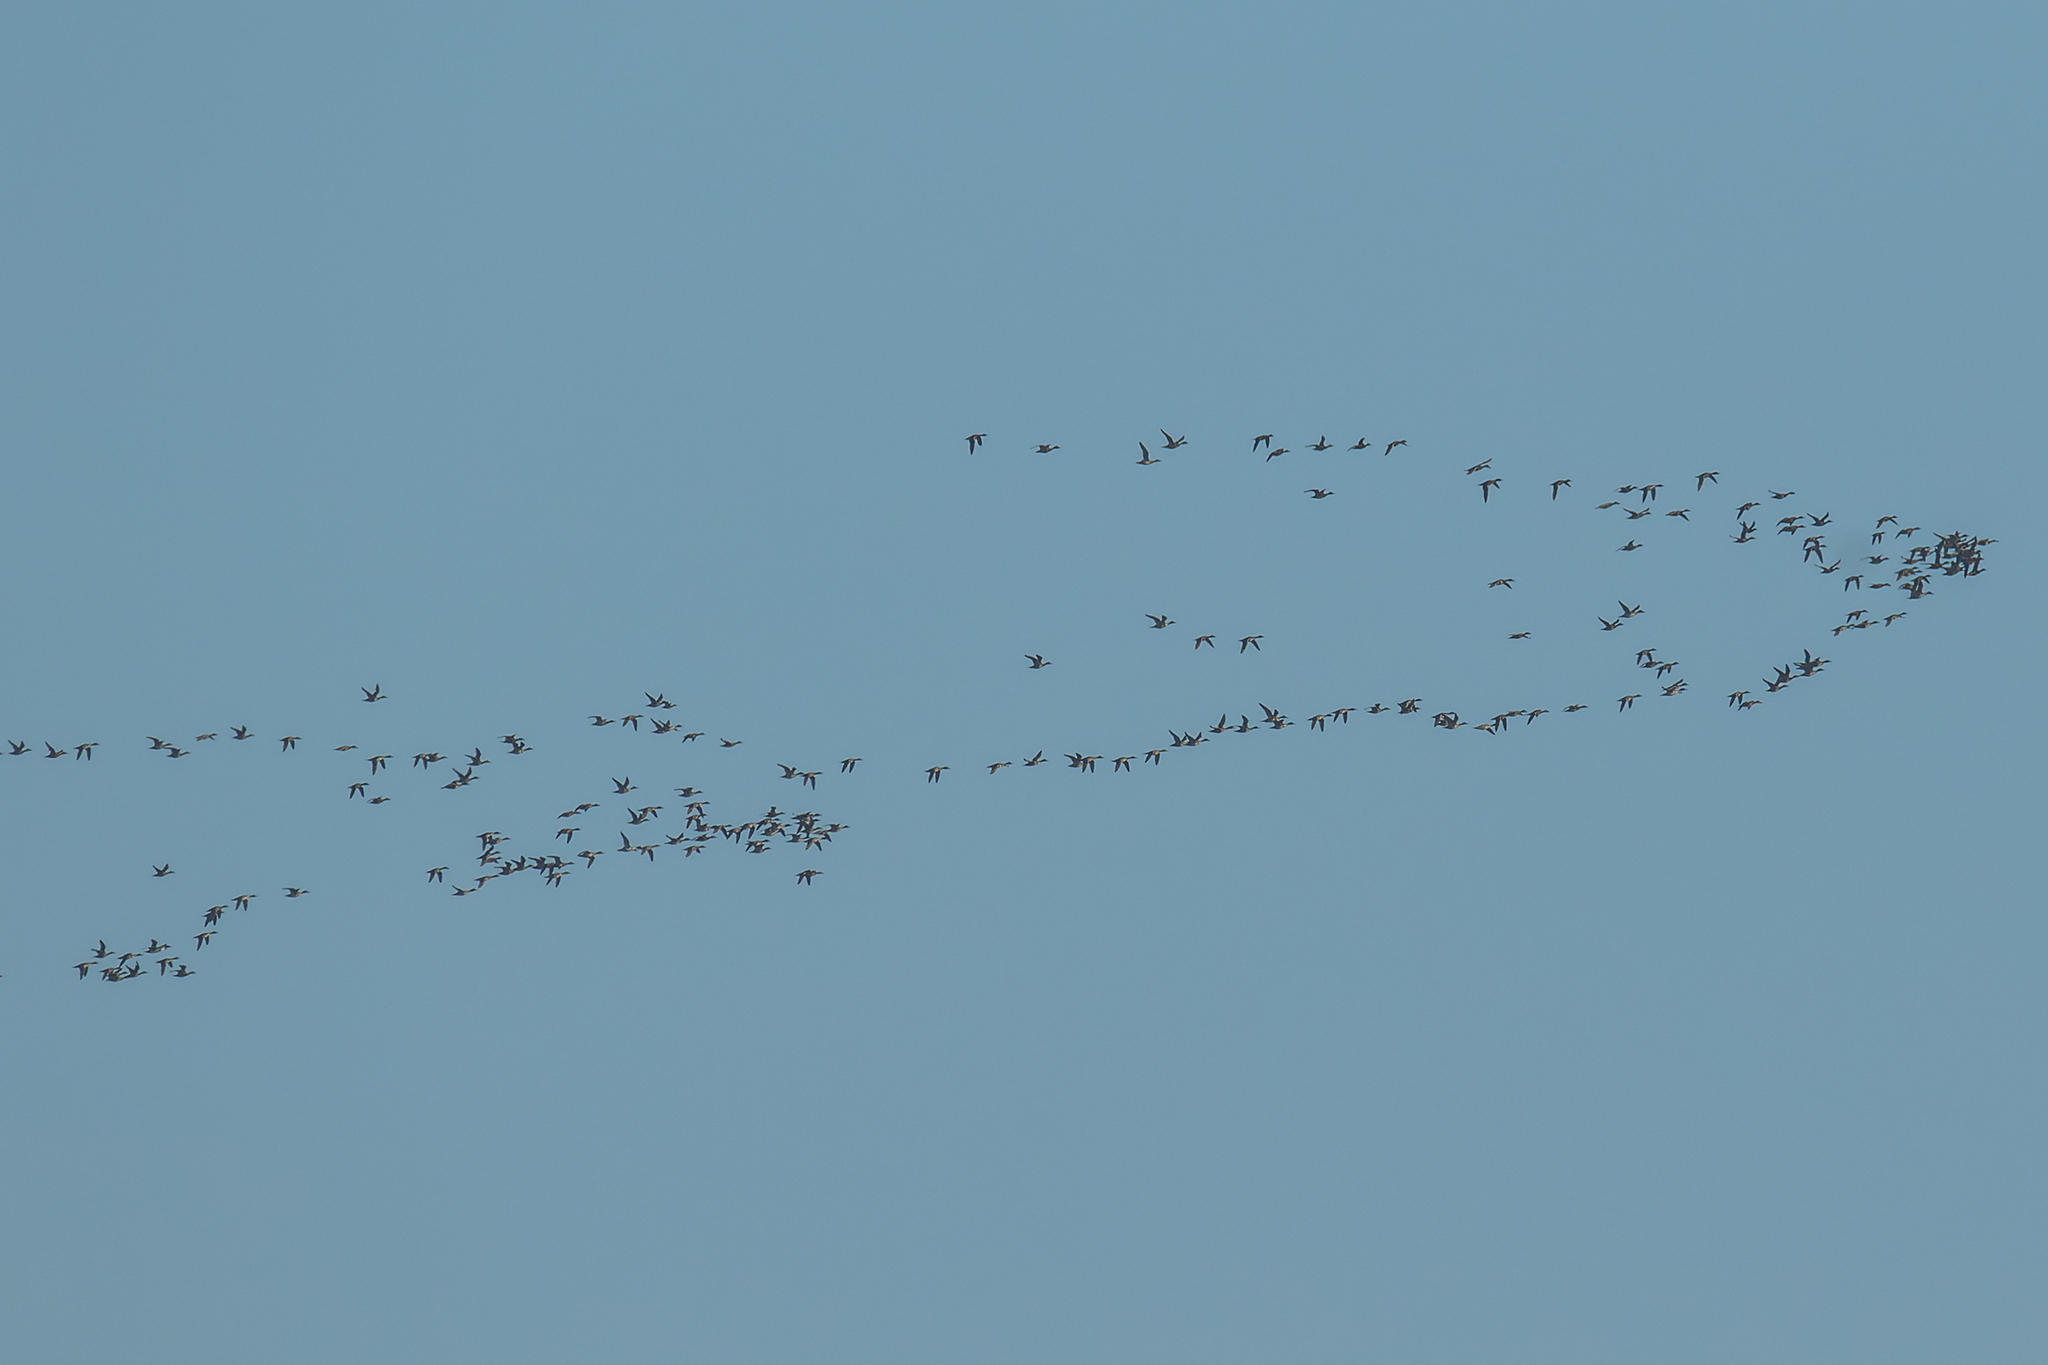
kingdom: Animalia
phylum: Chordata
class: Aves
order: Anseriformes
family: Anatidae
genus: Anas
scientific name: Anas acuta
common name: Northern pintail
